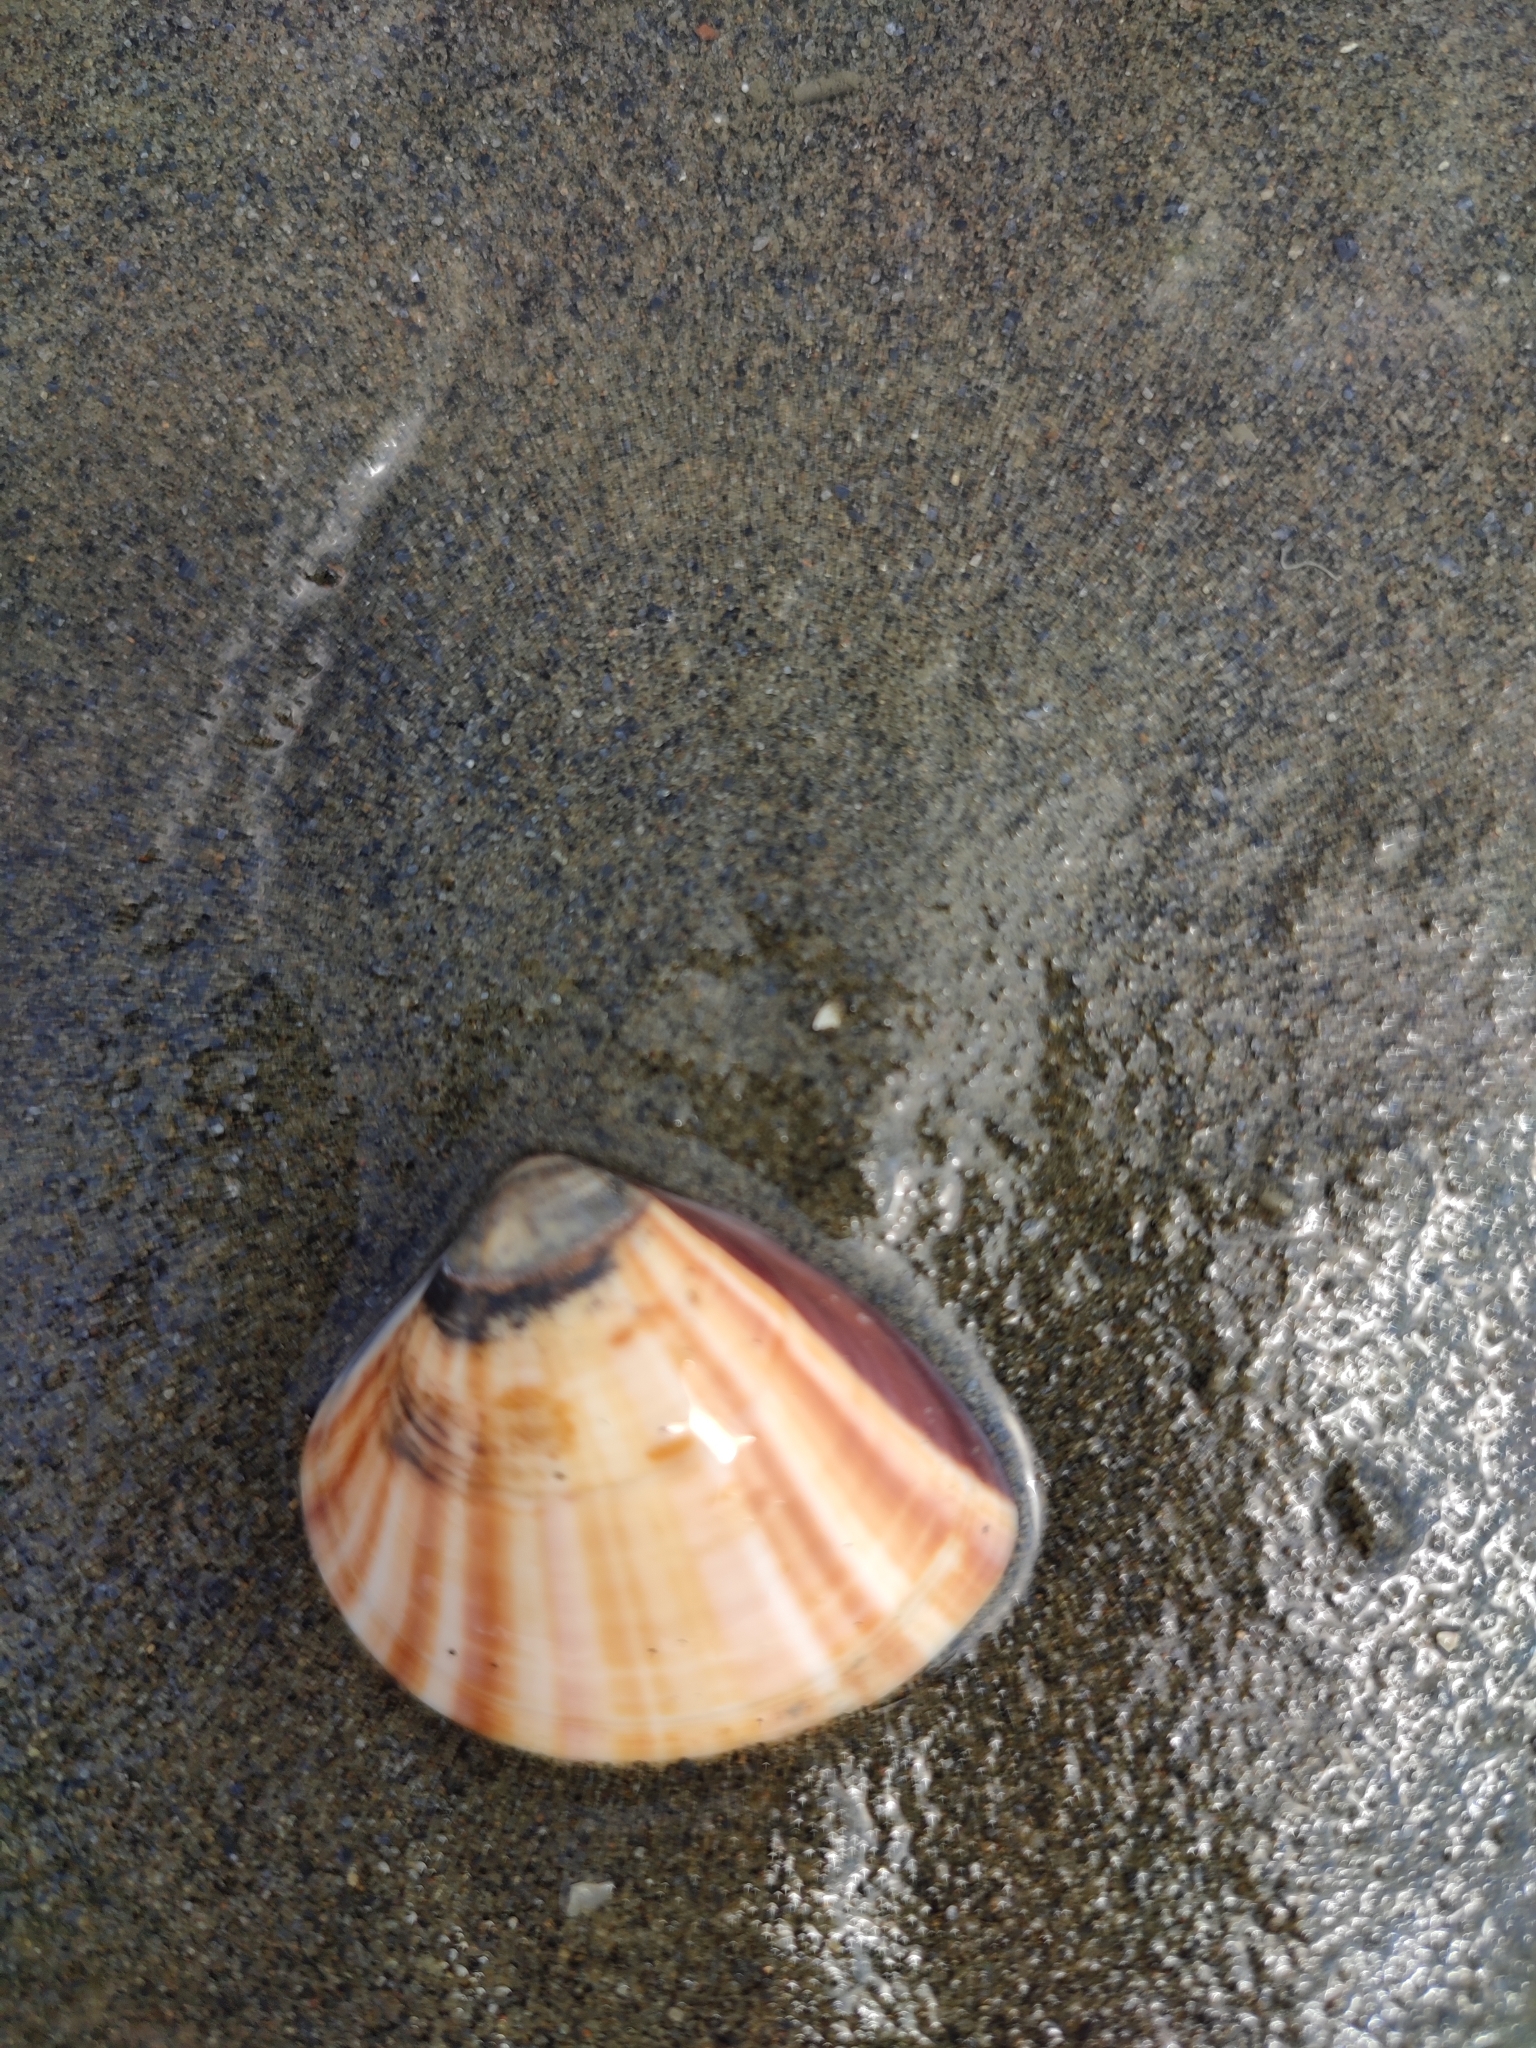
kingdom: Animalia
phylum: Mollusca
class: Bivalvia
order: Venerida
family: Veneridae
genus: Meretrix
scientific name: Meretrix lusoria
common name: Asian hard clam
